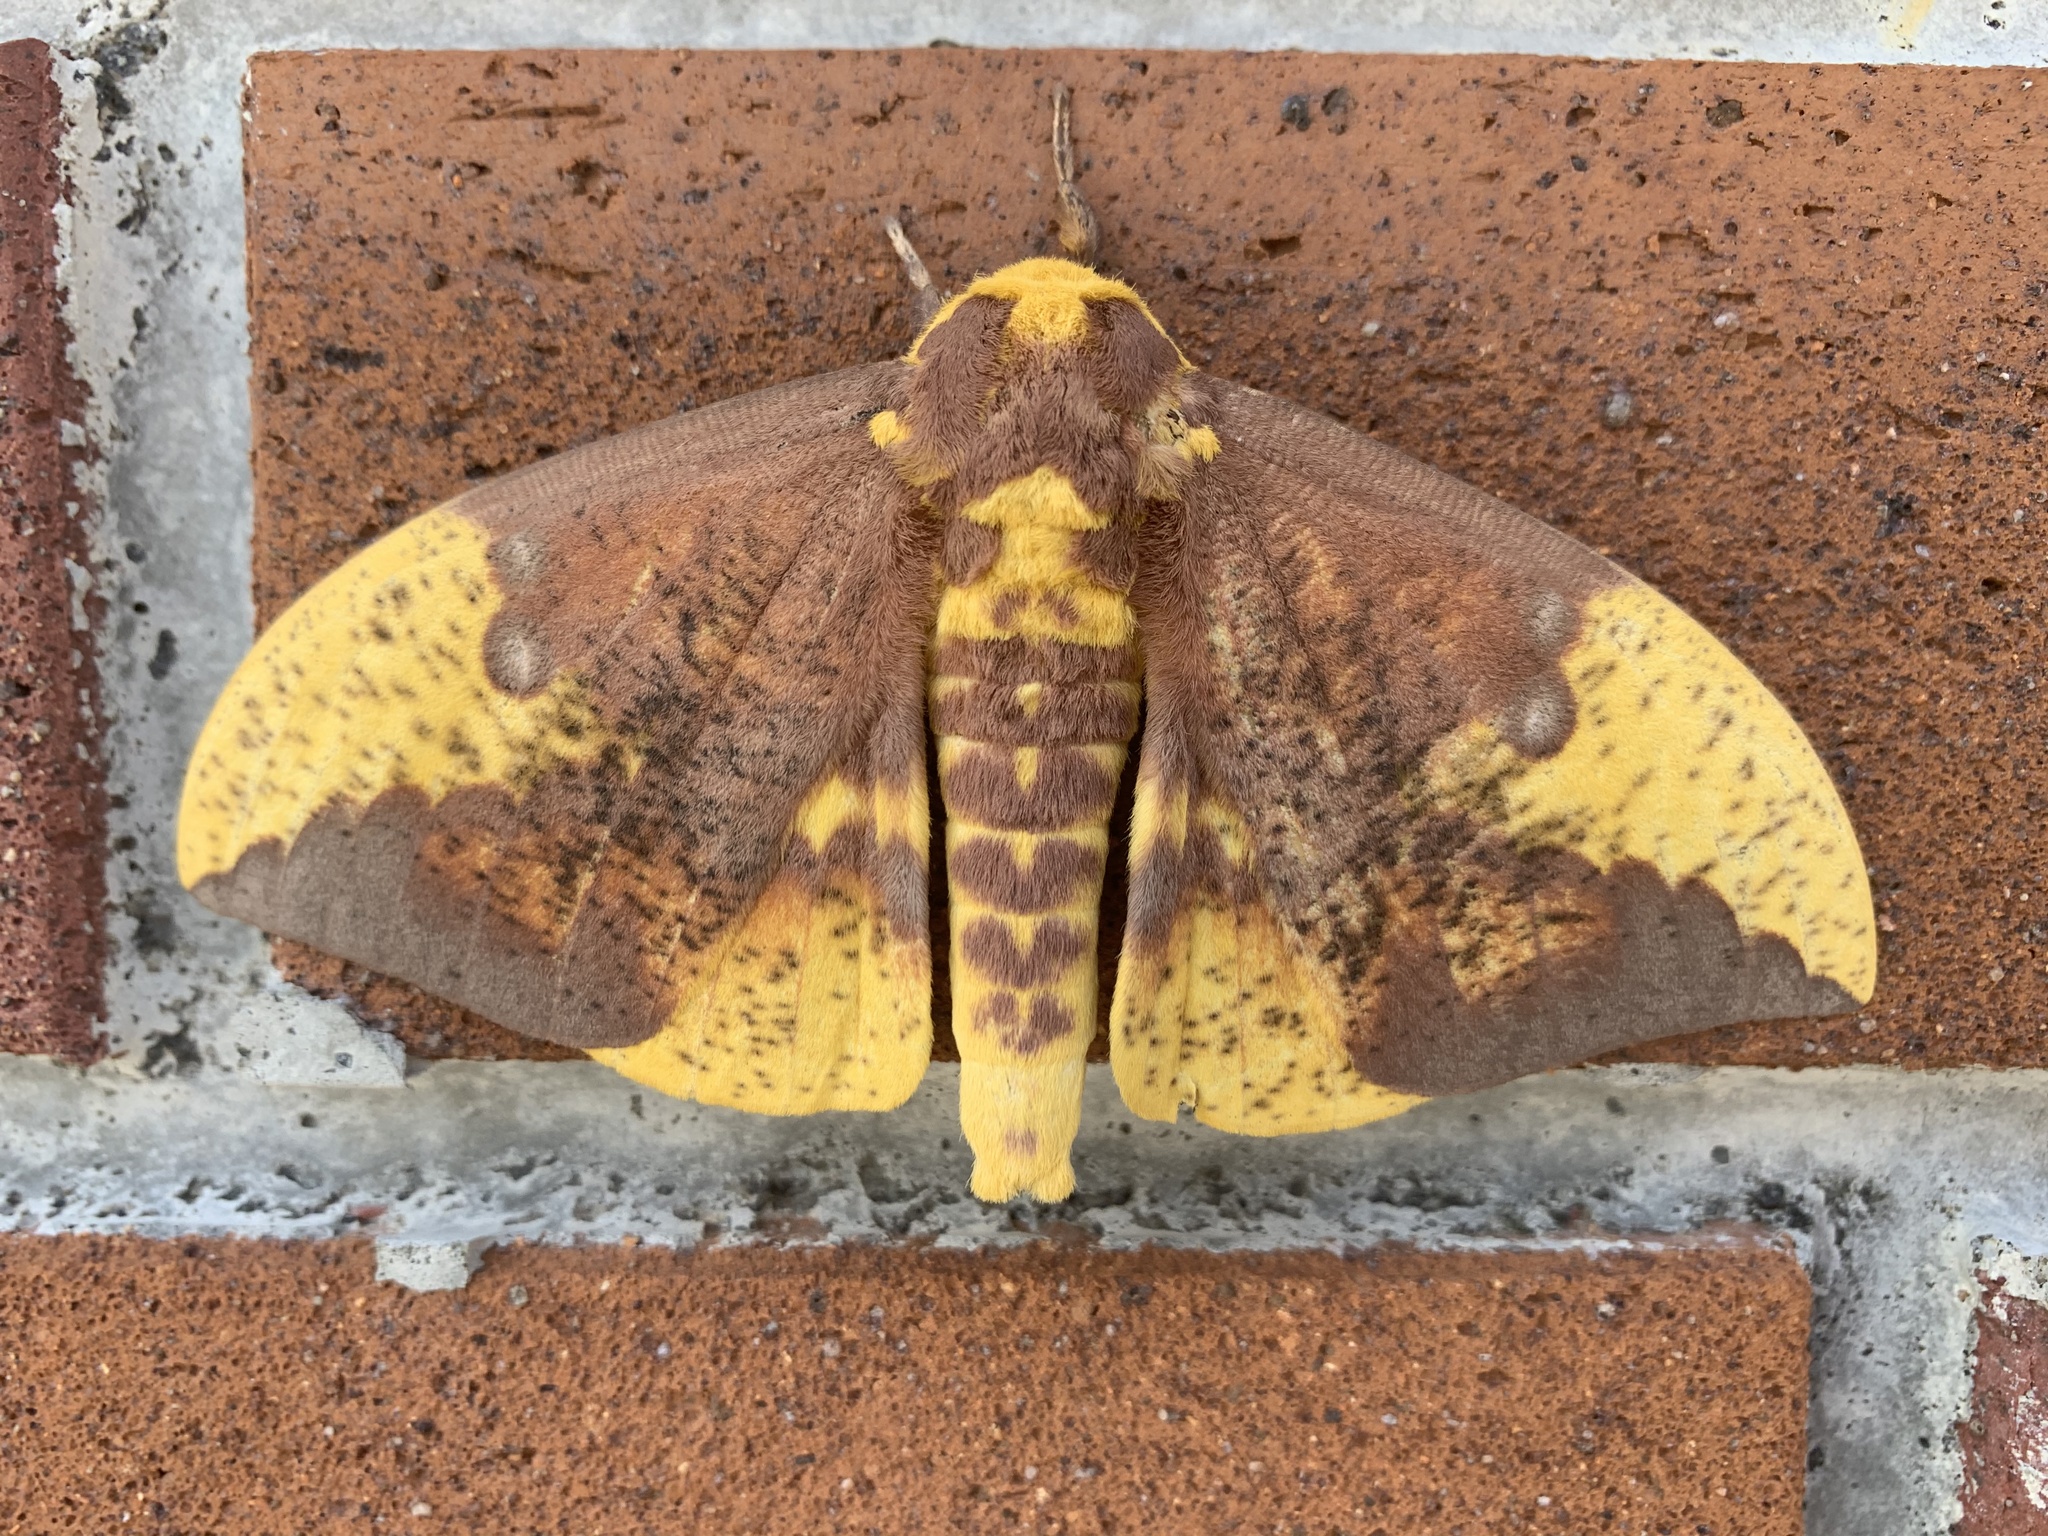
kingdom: Animalia
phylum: Arthropoda
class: Insecta
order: Lepidoptera
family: Saturniidae
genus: Eacles
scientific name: Eacles imperialis
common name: Imperial moth
